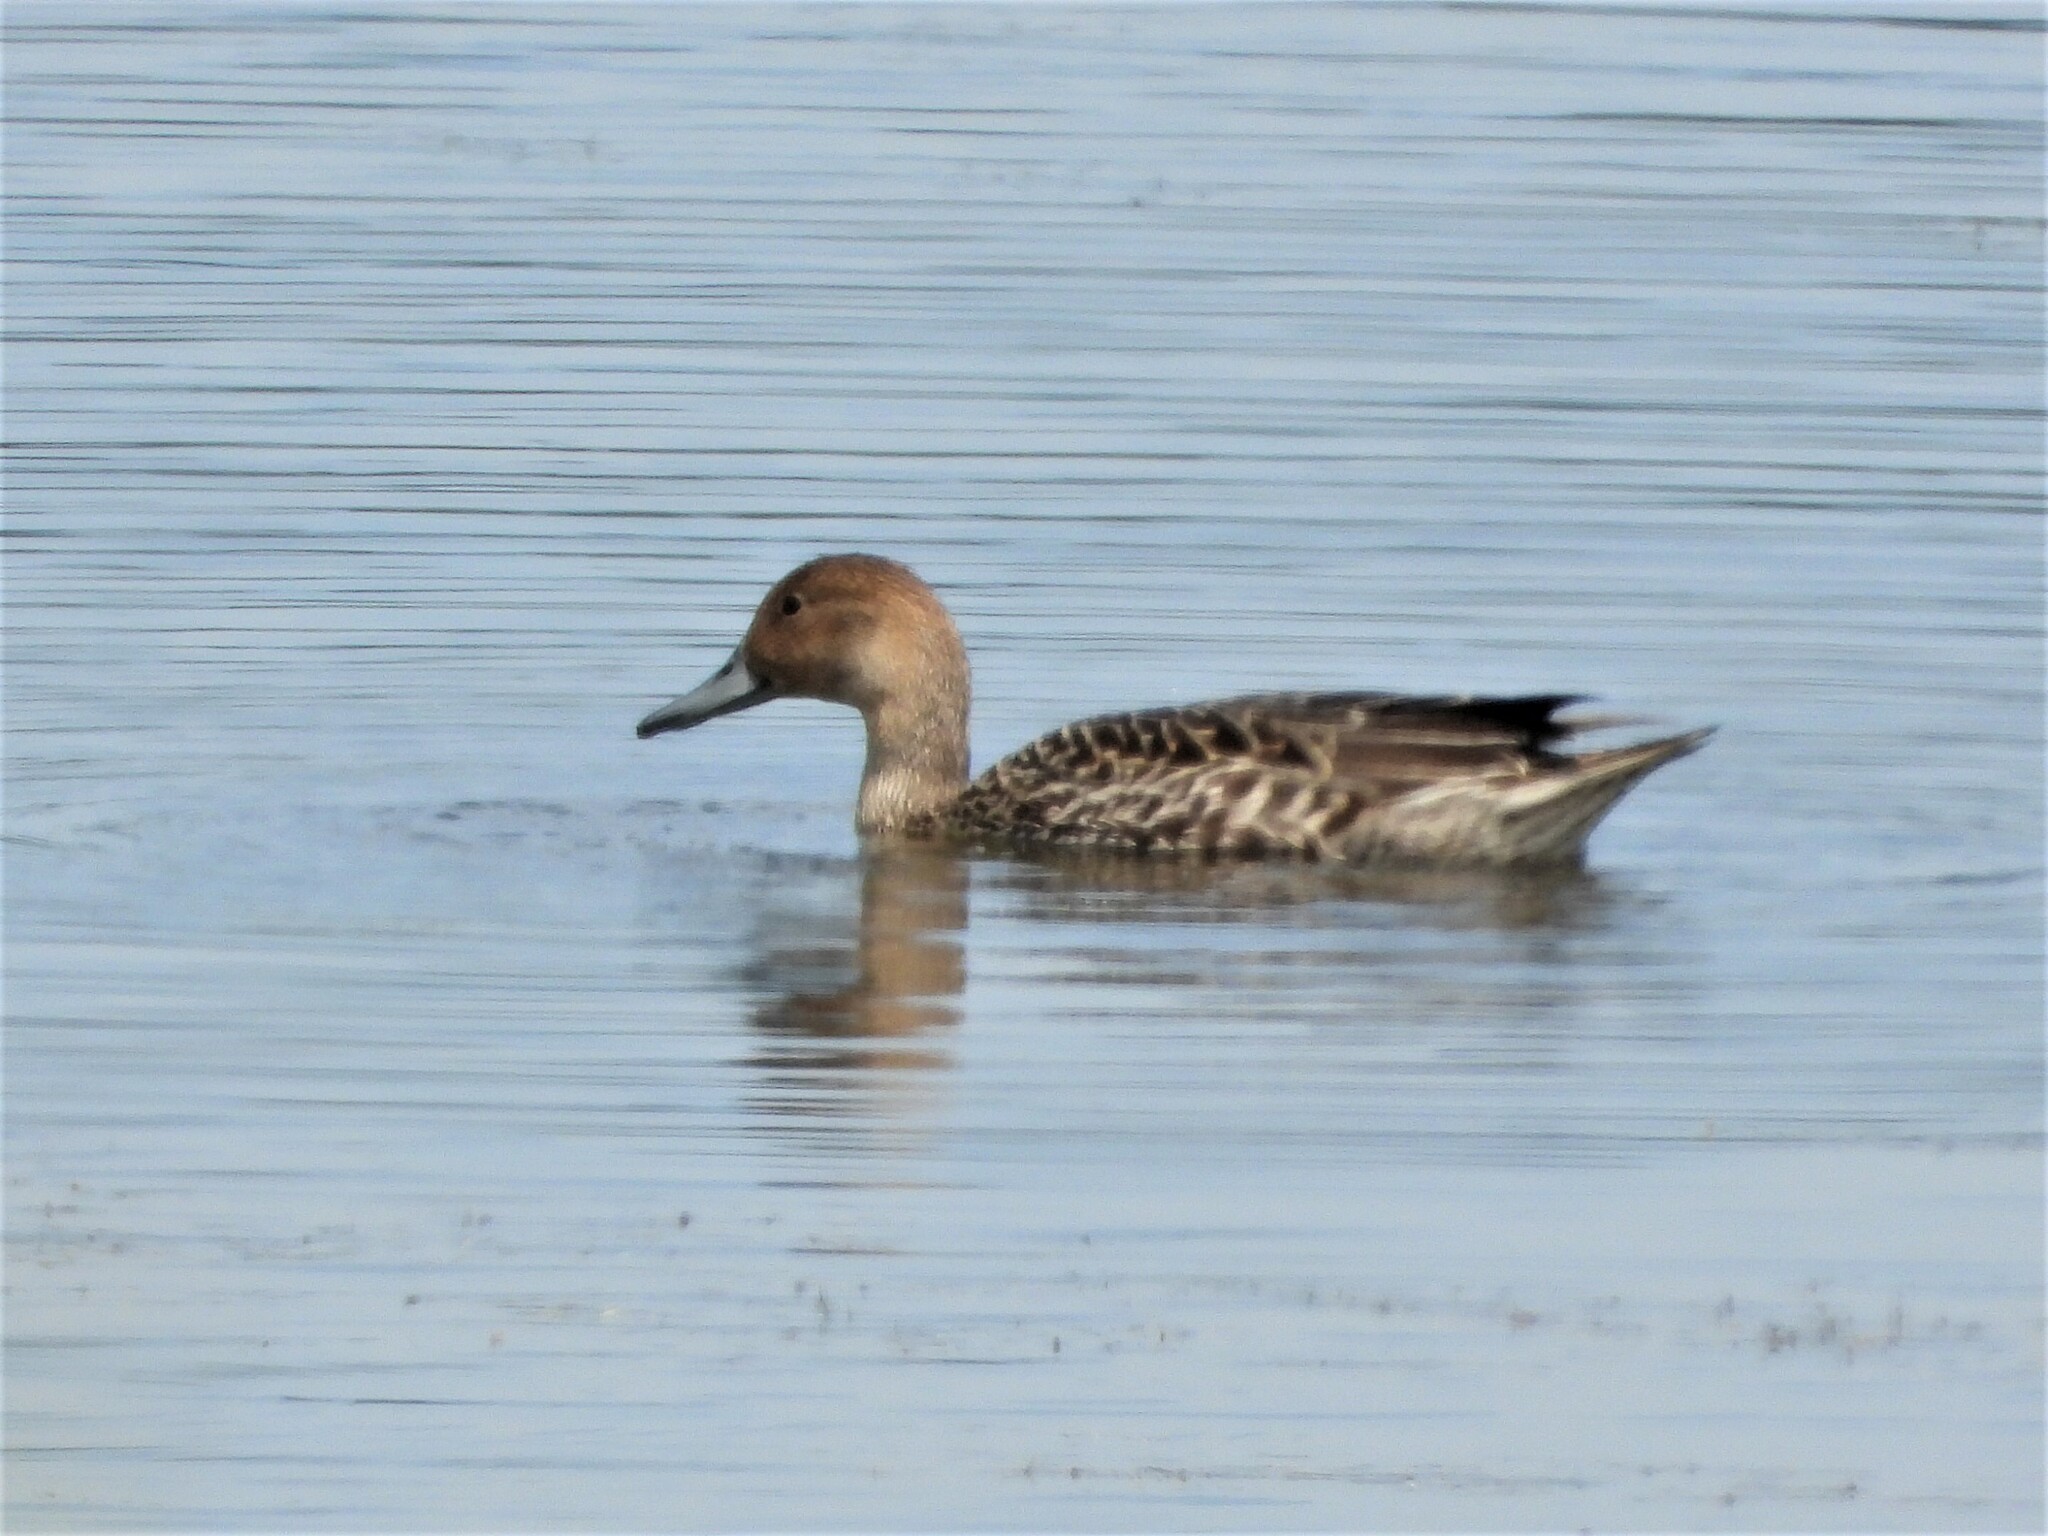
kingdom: Animalia
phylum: Chordata
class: Aves
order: Anseriformes
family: Anatidae
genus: Anas
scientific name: Anas acuta
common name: Northern pintail
